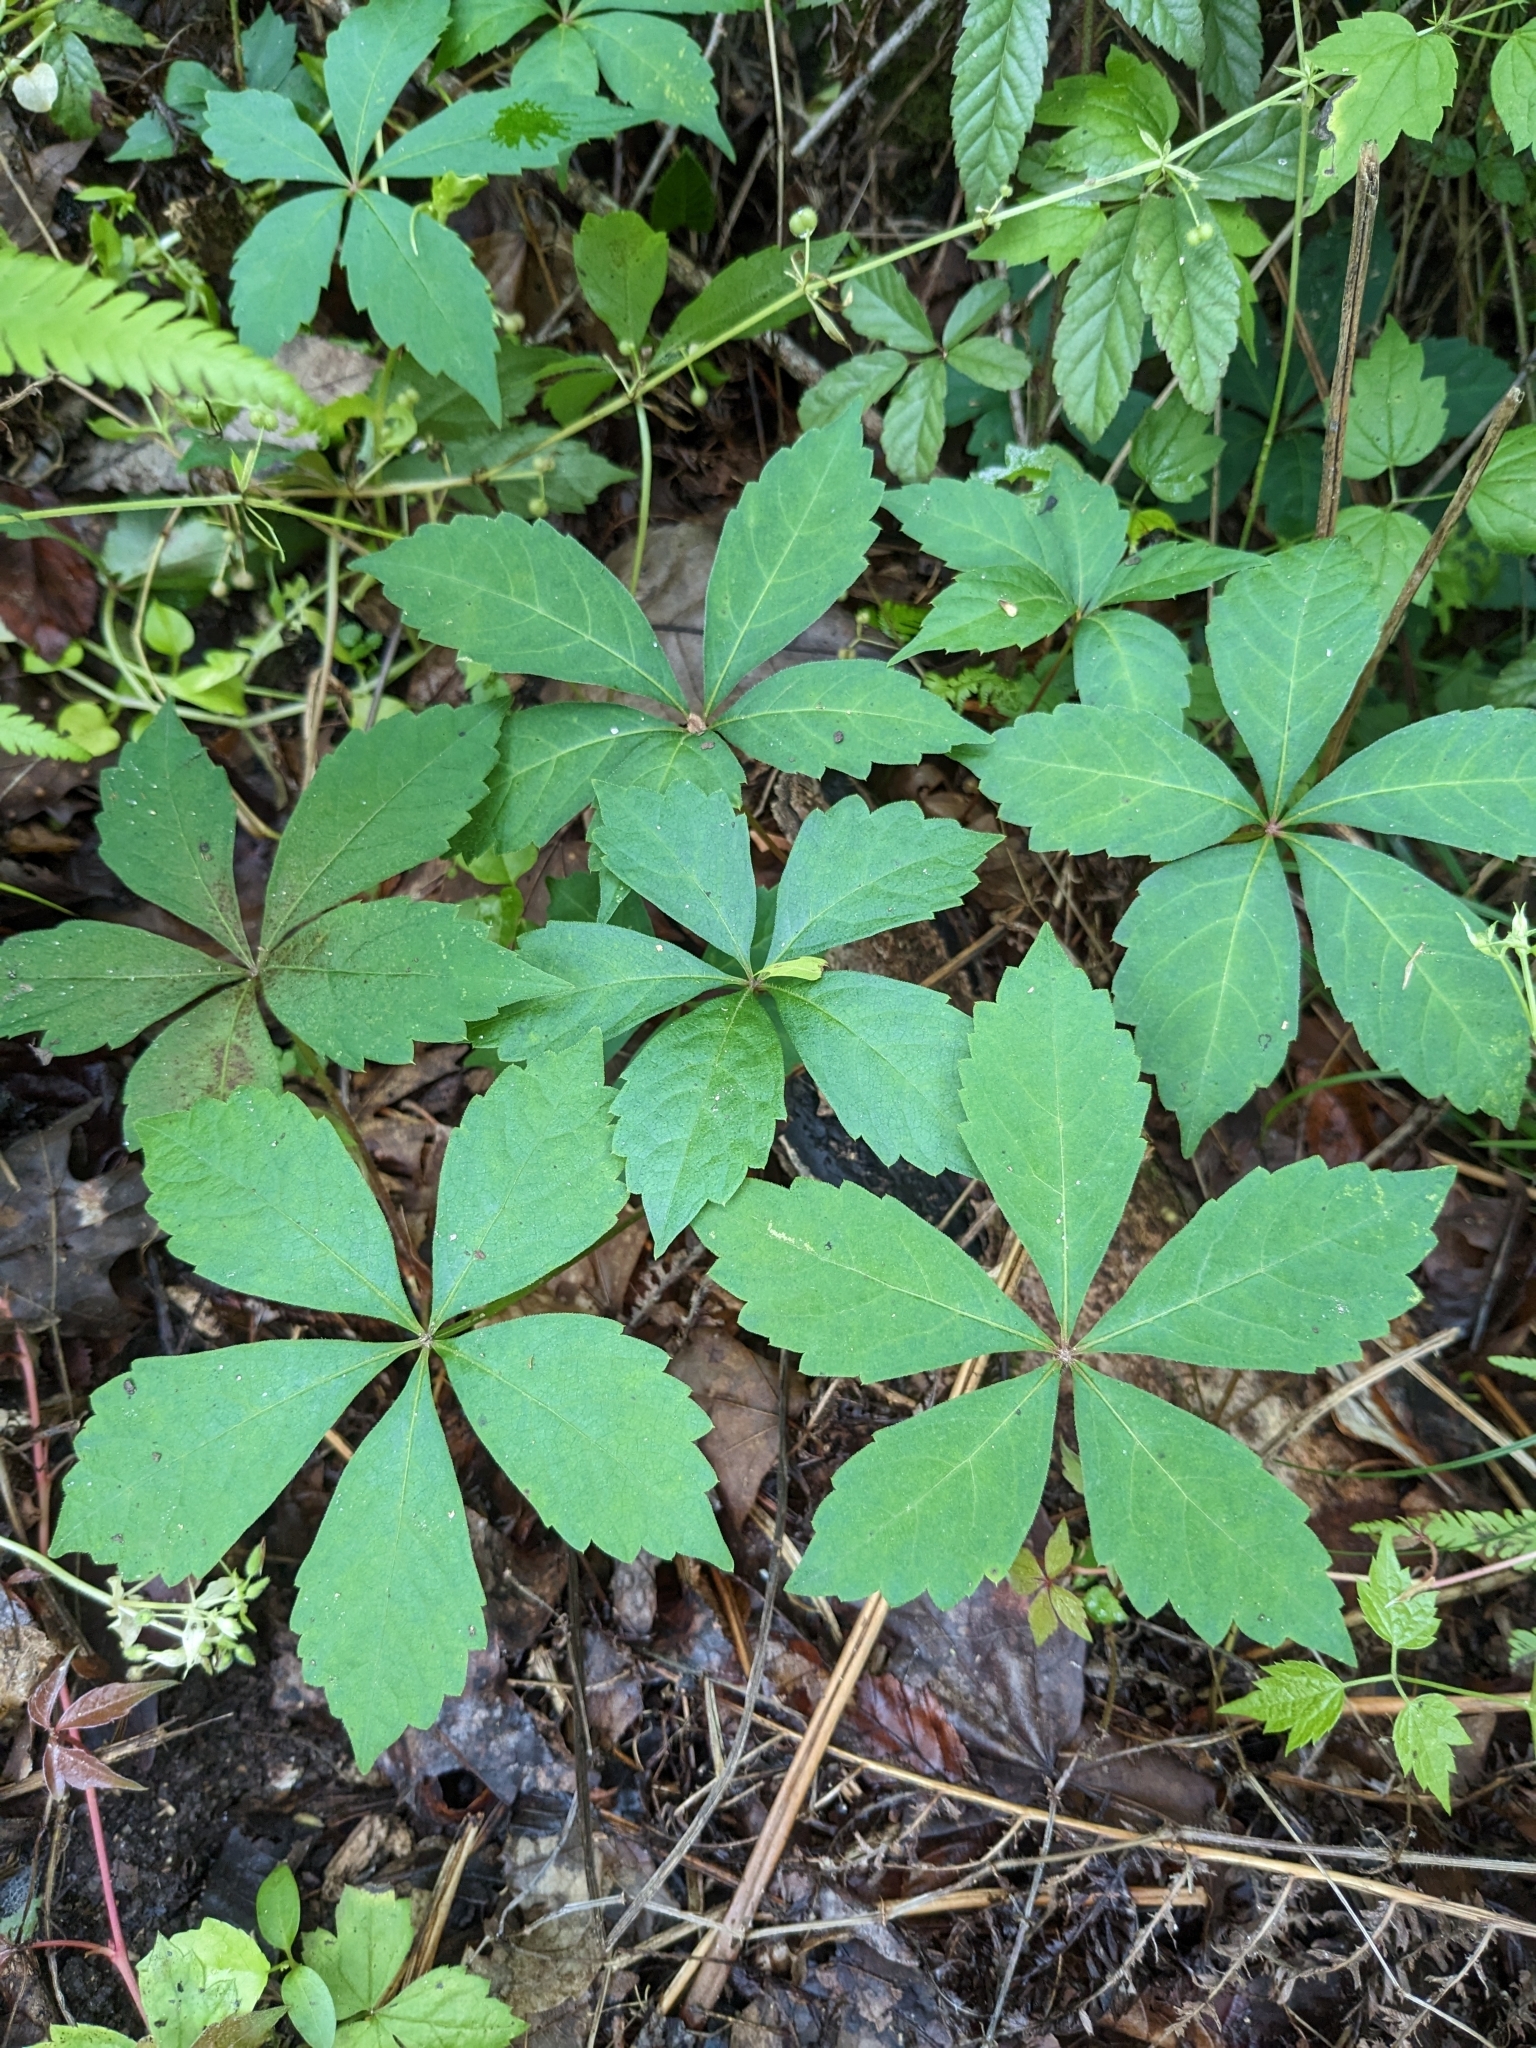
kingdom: Plantae
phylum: Tracheophyta
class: Magnoliopsida
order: Vitales
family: Vitaceae
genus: Parthenocissus
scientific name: Parthenocissus quinquefolia
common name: Virginia-creeper
